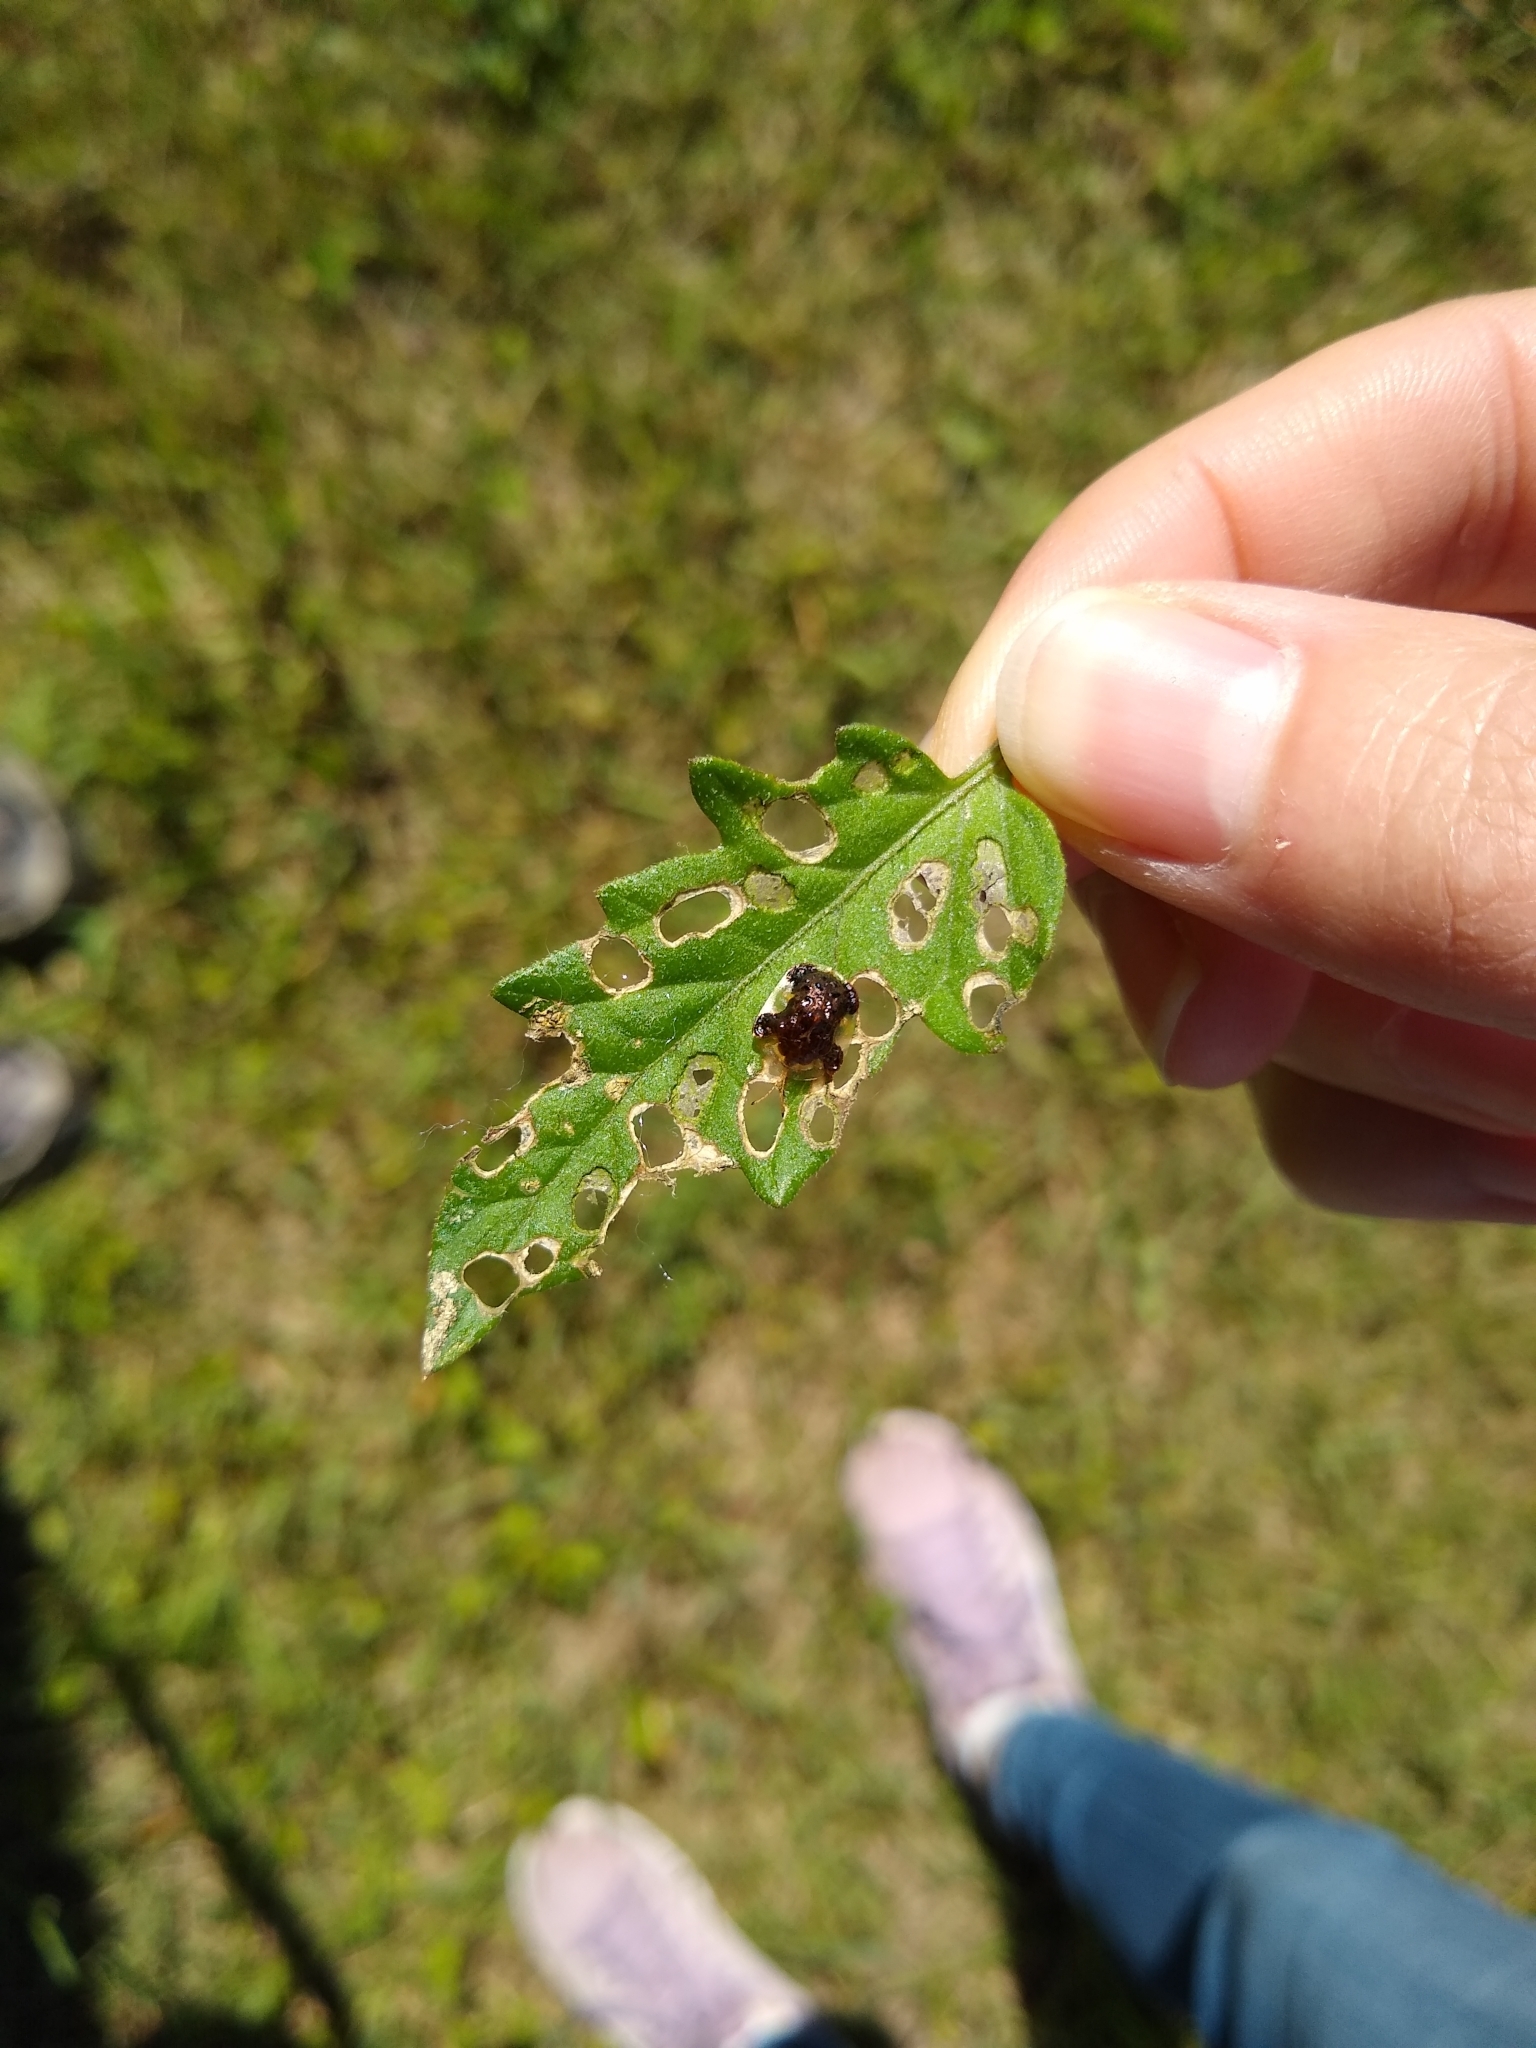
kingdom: Animalia
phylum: Arthropoda
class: Insecta
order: Coleoptera
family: Chrysomelidae
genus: Helocassis
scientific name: Helocassis clavata
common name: Clavate tortoise beetle
